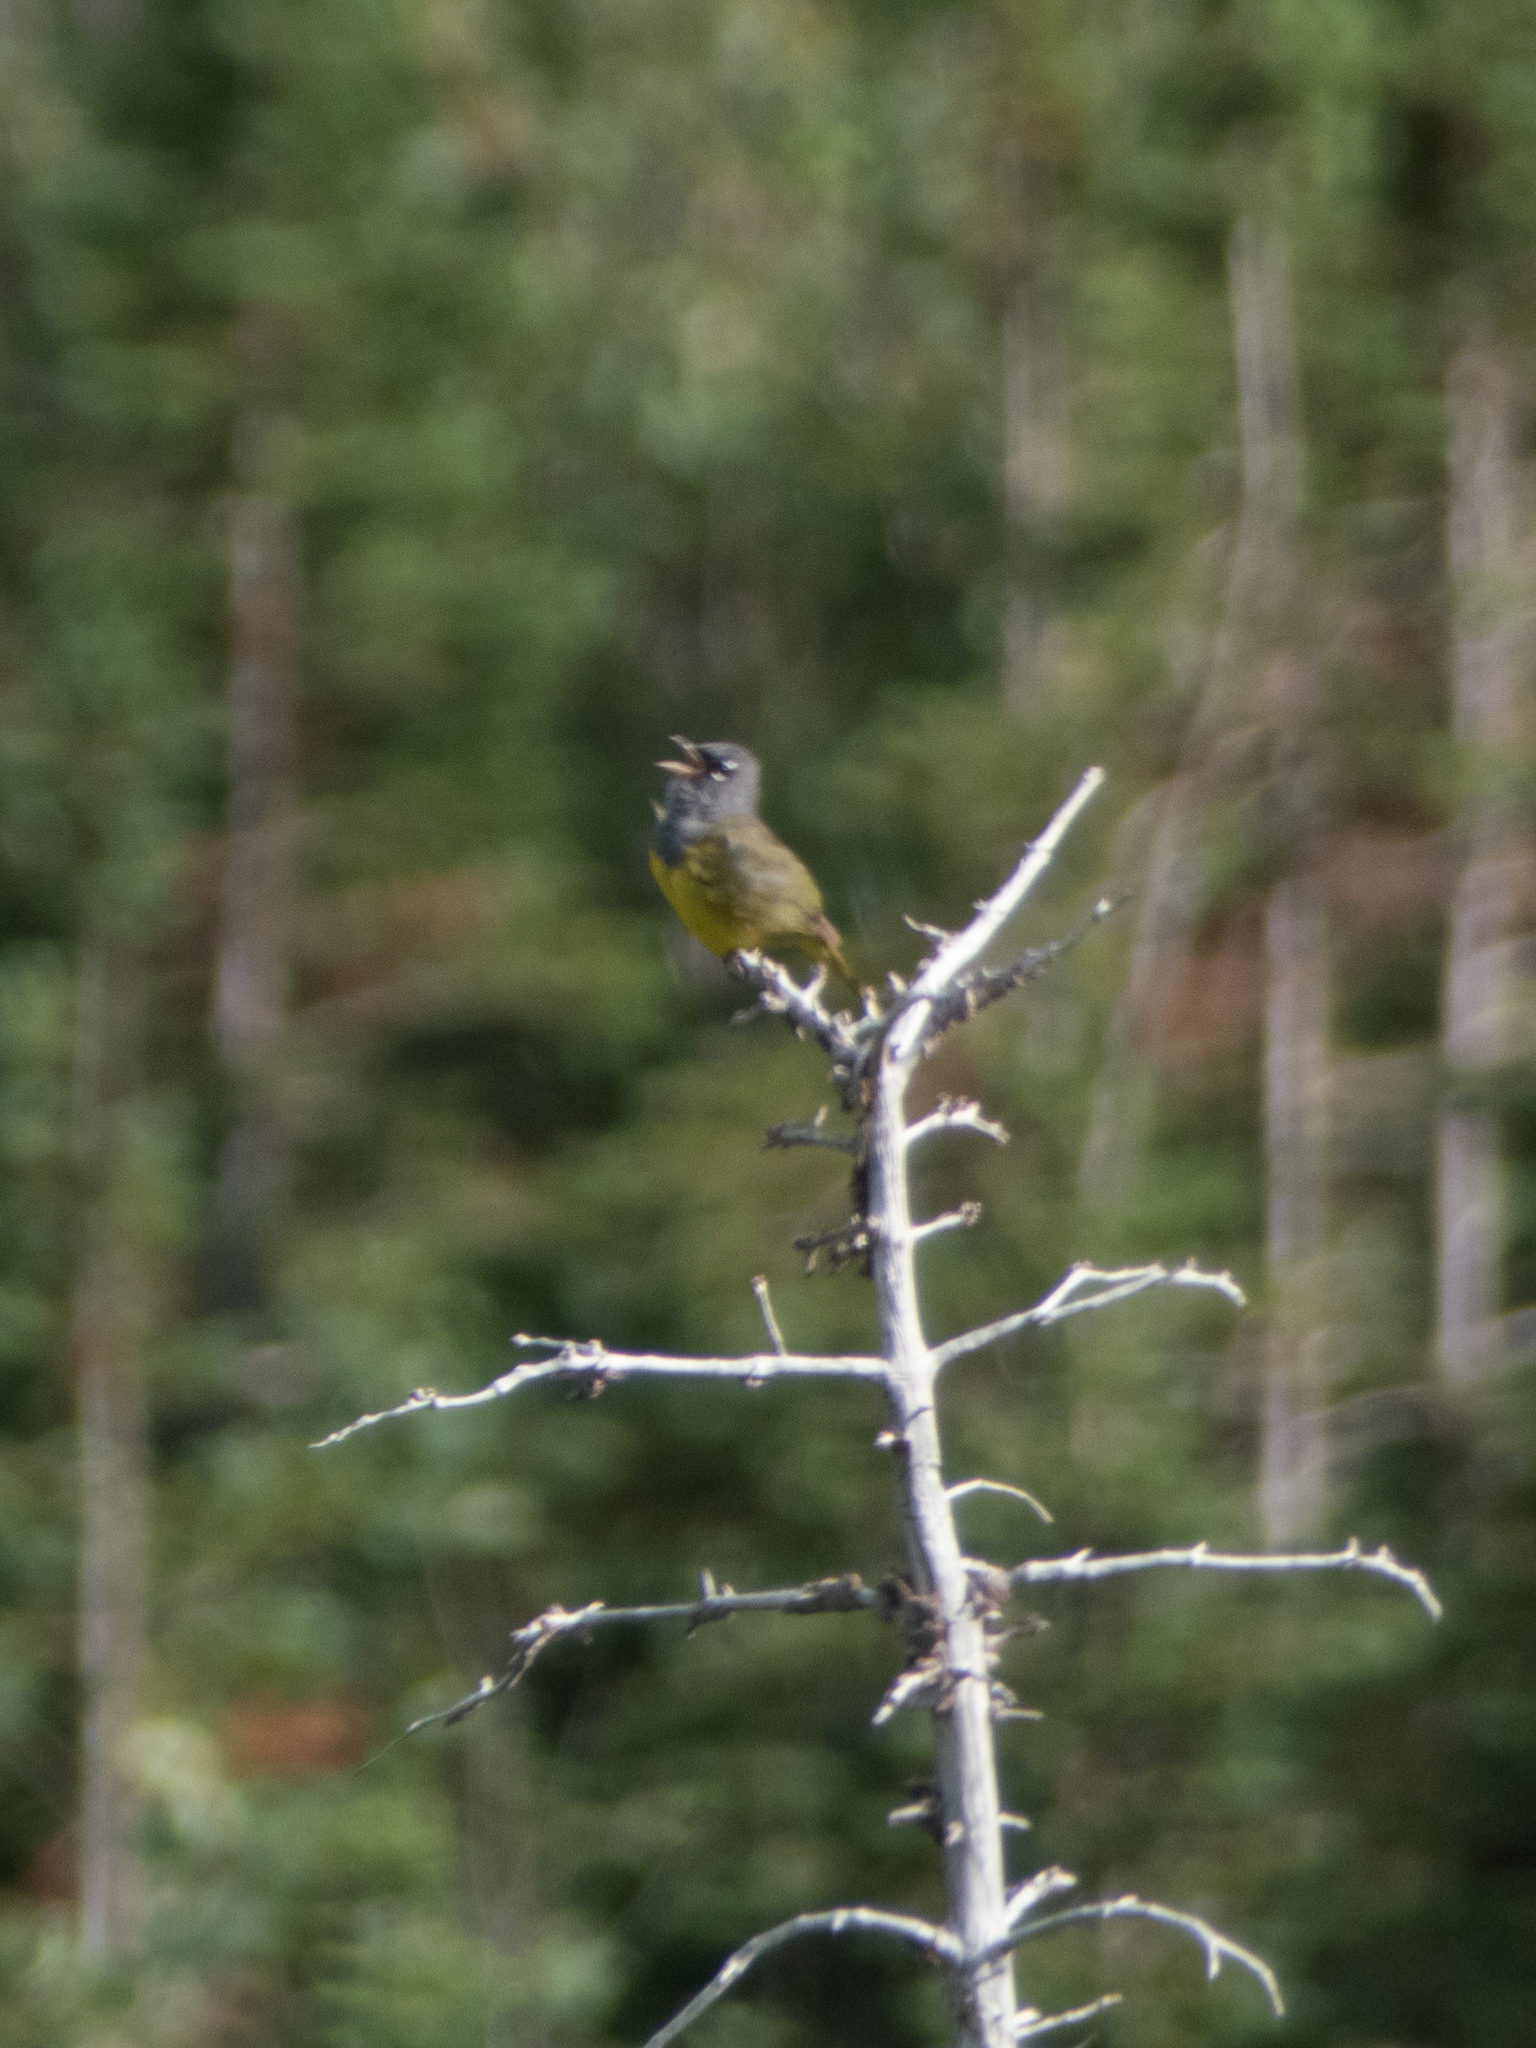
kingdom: Animalia
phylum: Chordata
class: Aves
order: Passeriformes
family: Parulidae
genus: Geothlypis
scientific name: Geothlypis tolmiei
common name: Macgillivray's warbler
